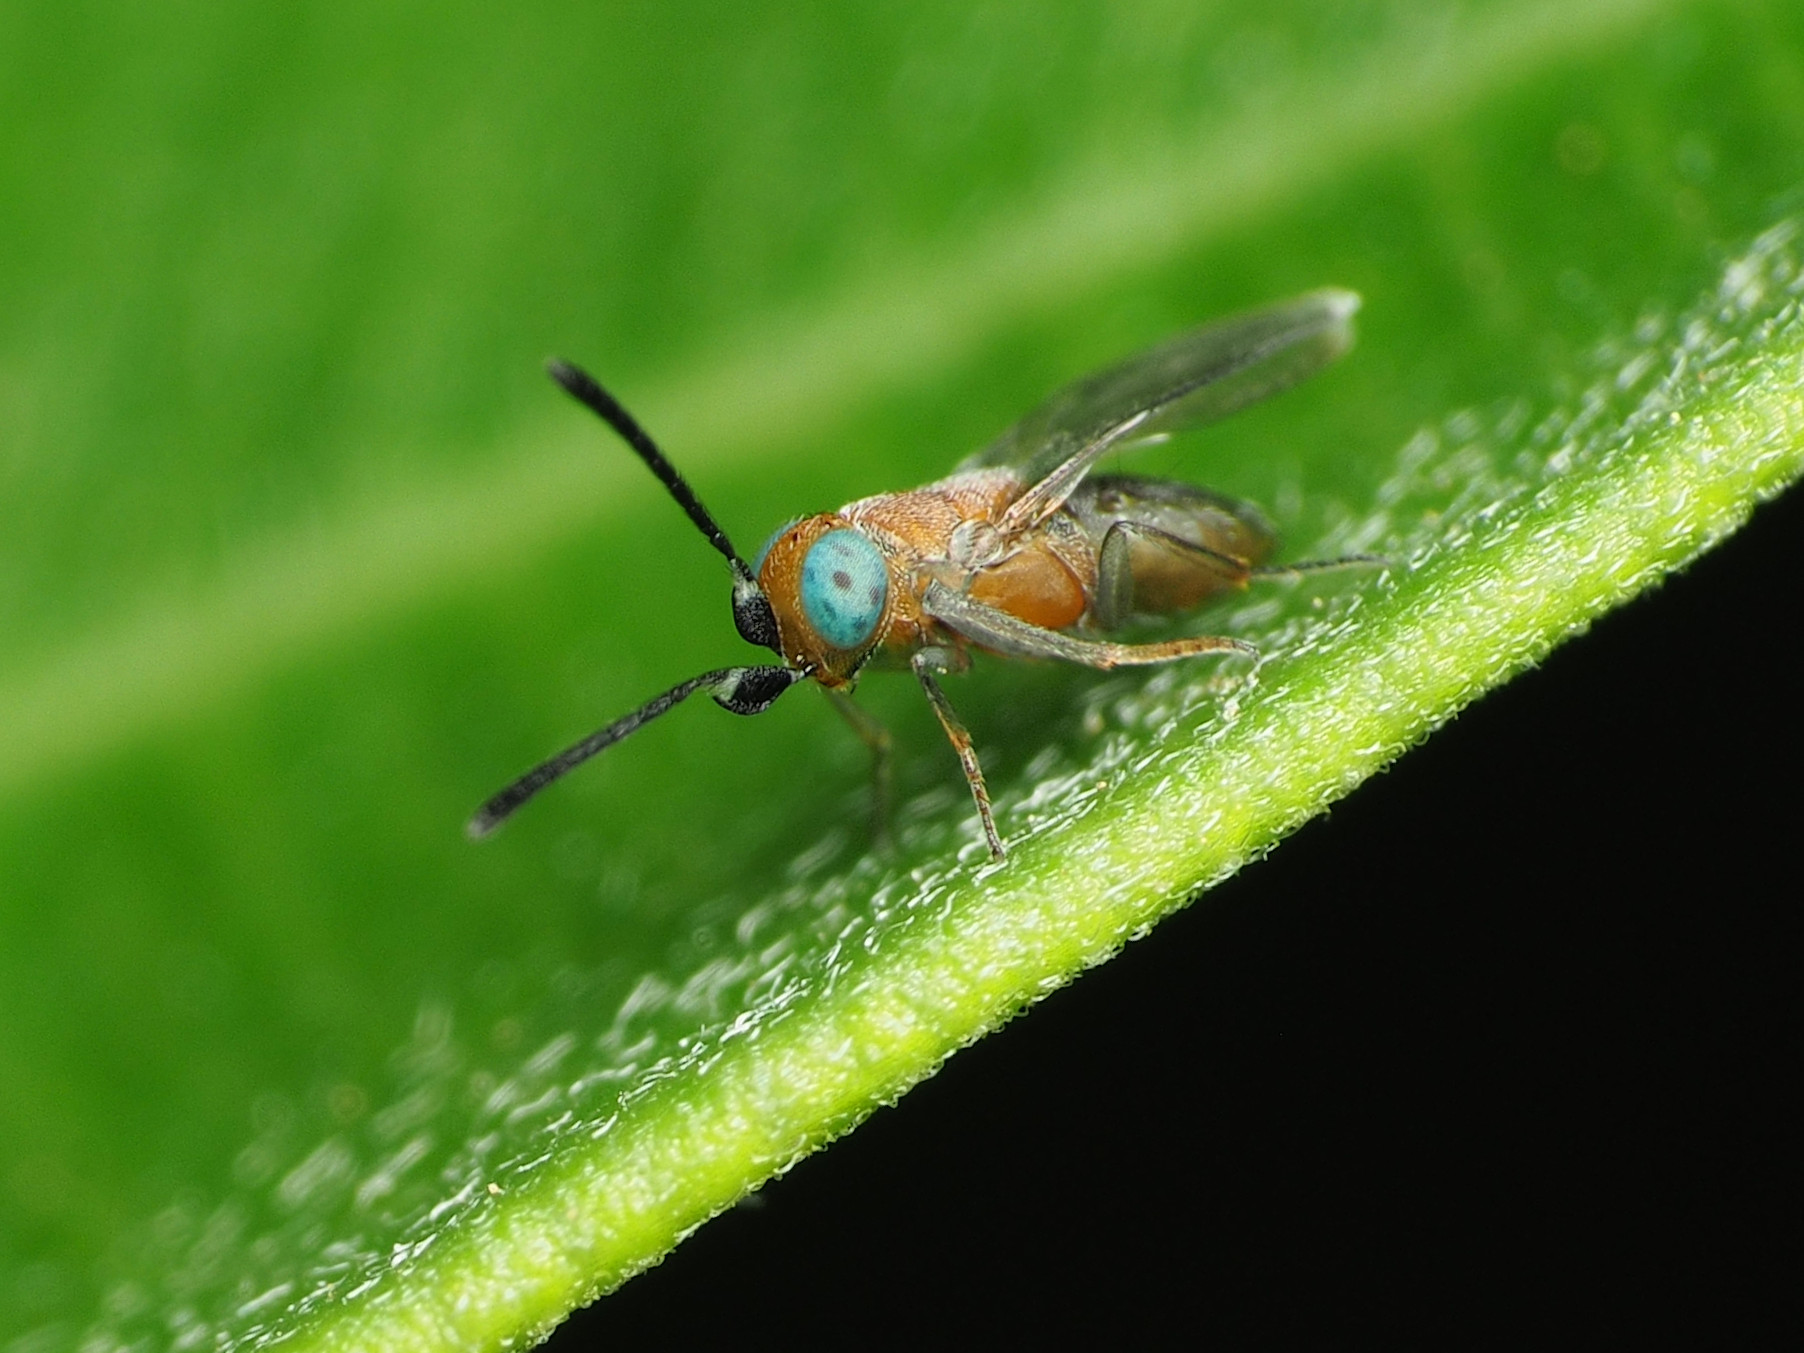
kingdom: Animalia
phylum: Arthropoda
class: Insecta
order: Hymenoptera
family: Encyrtidae
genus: Anagyrus
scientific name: Anagyrus orbitalis
